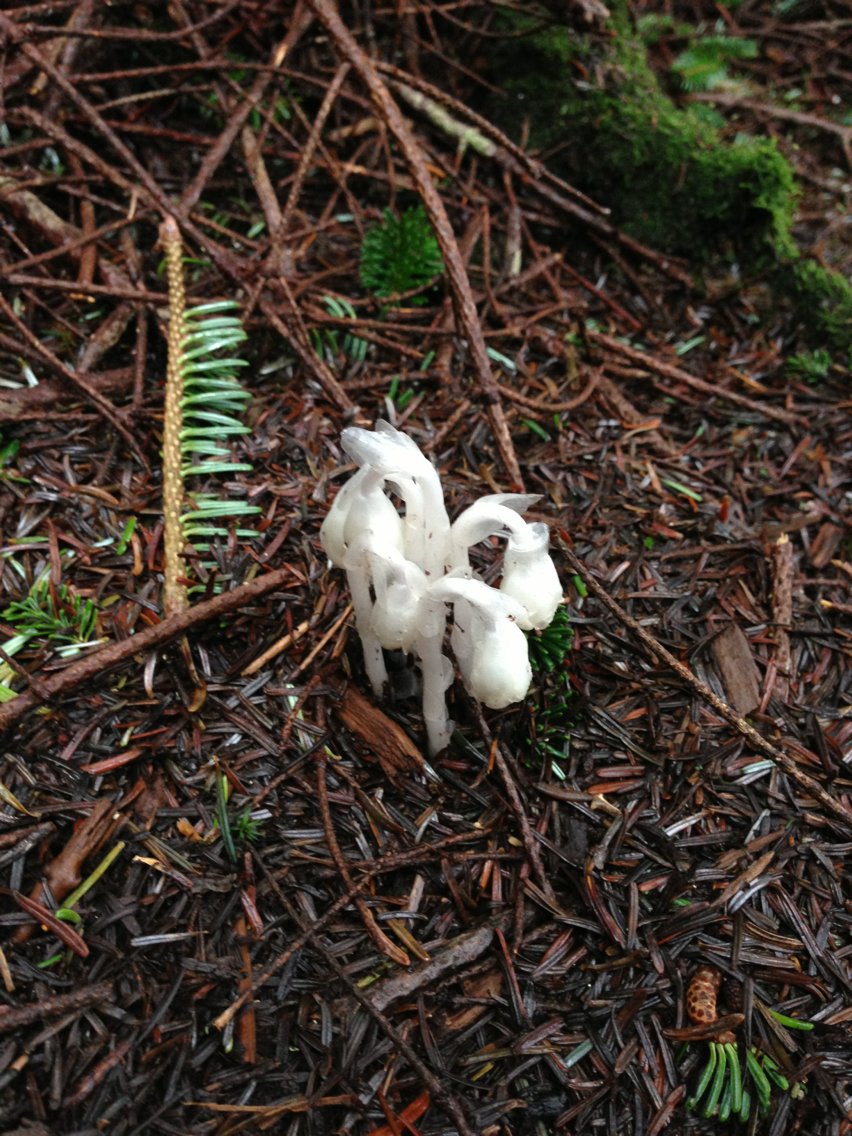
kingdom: Plantae
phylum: Tracheophyta
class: Magnoliopsida
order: Ericales
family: Ericaceae
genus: Monotropa
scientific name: Monotropa uniflora
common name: Convulsion root
